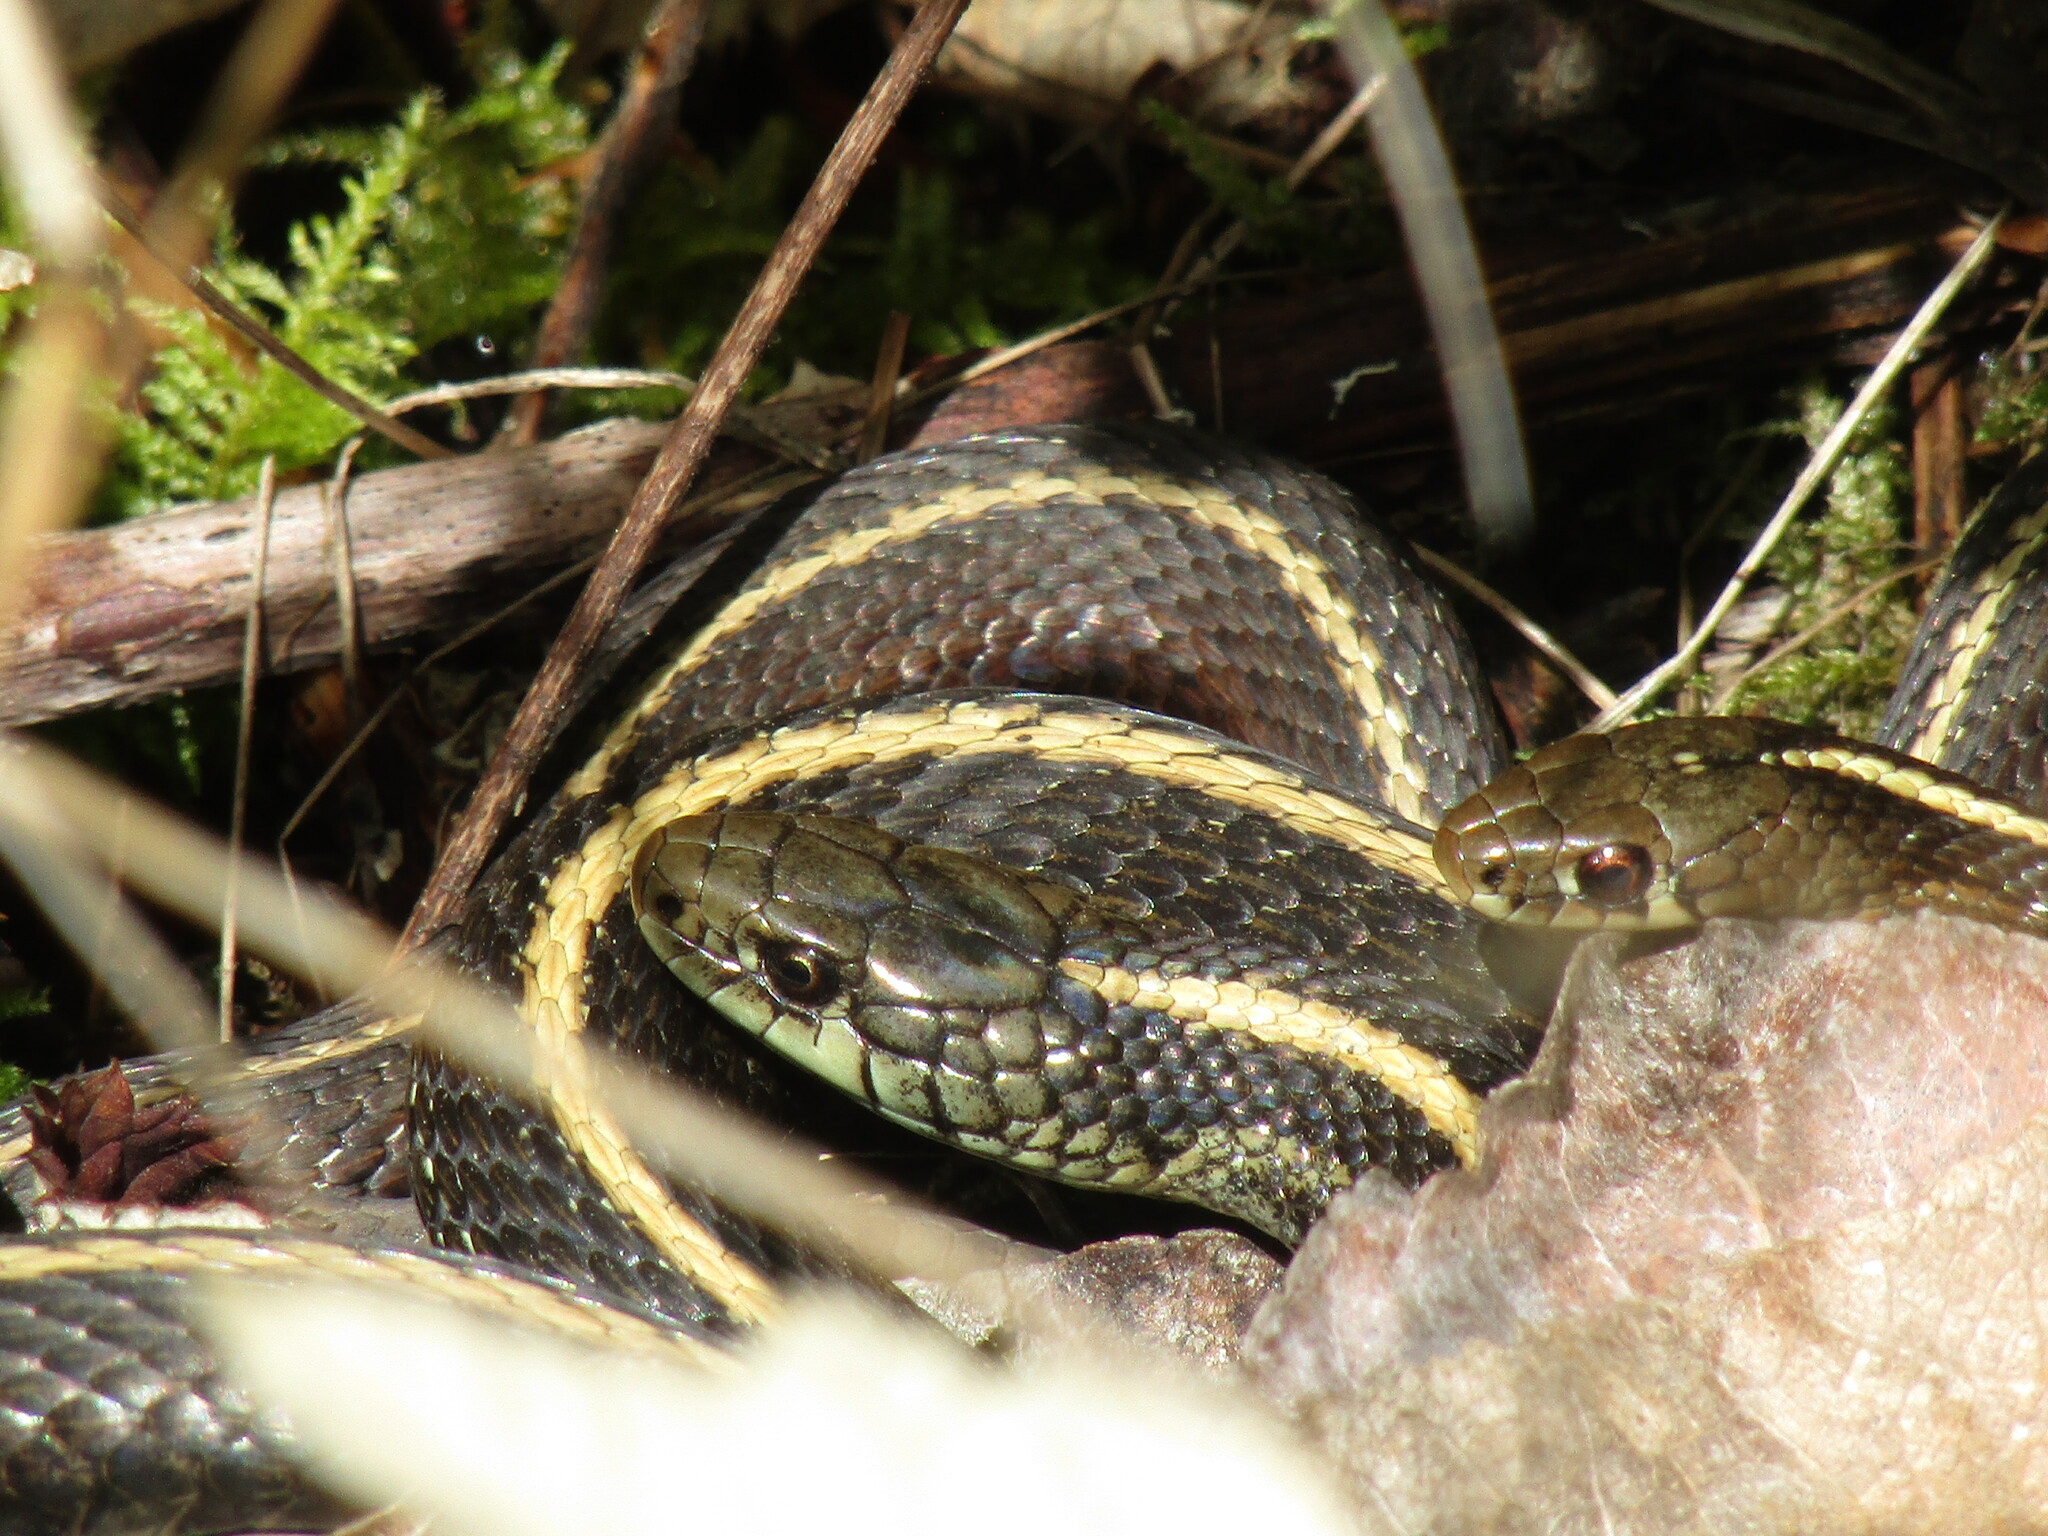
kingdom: Animalia
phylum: Chordata
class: Squamata
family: Colubridae
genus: Thamnophis
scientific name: Thamnophis ordinoides
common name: Northwestern garter snake
